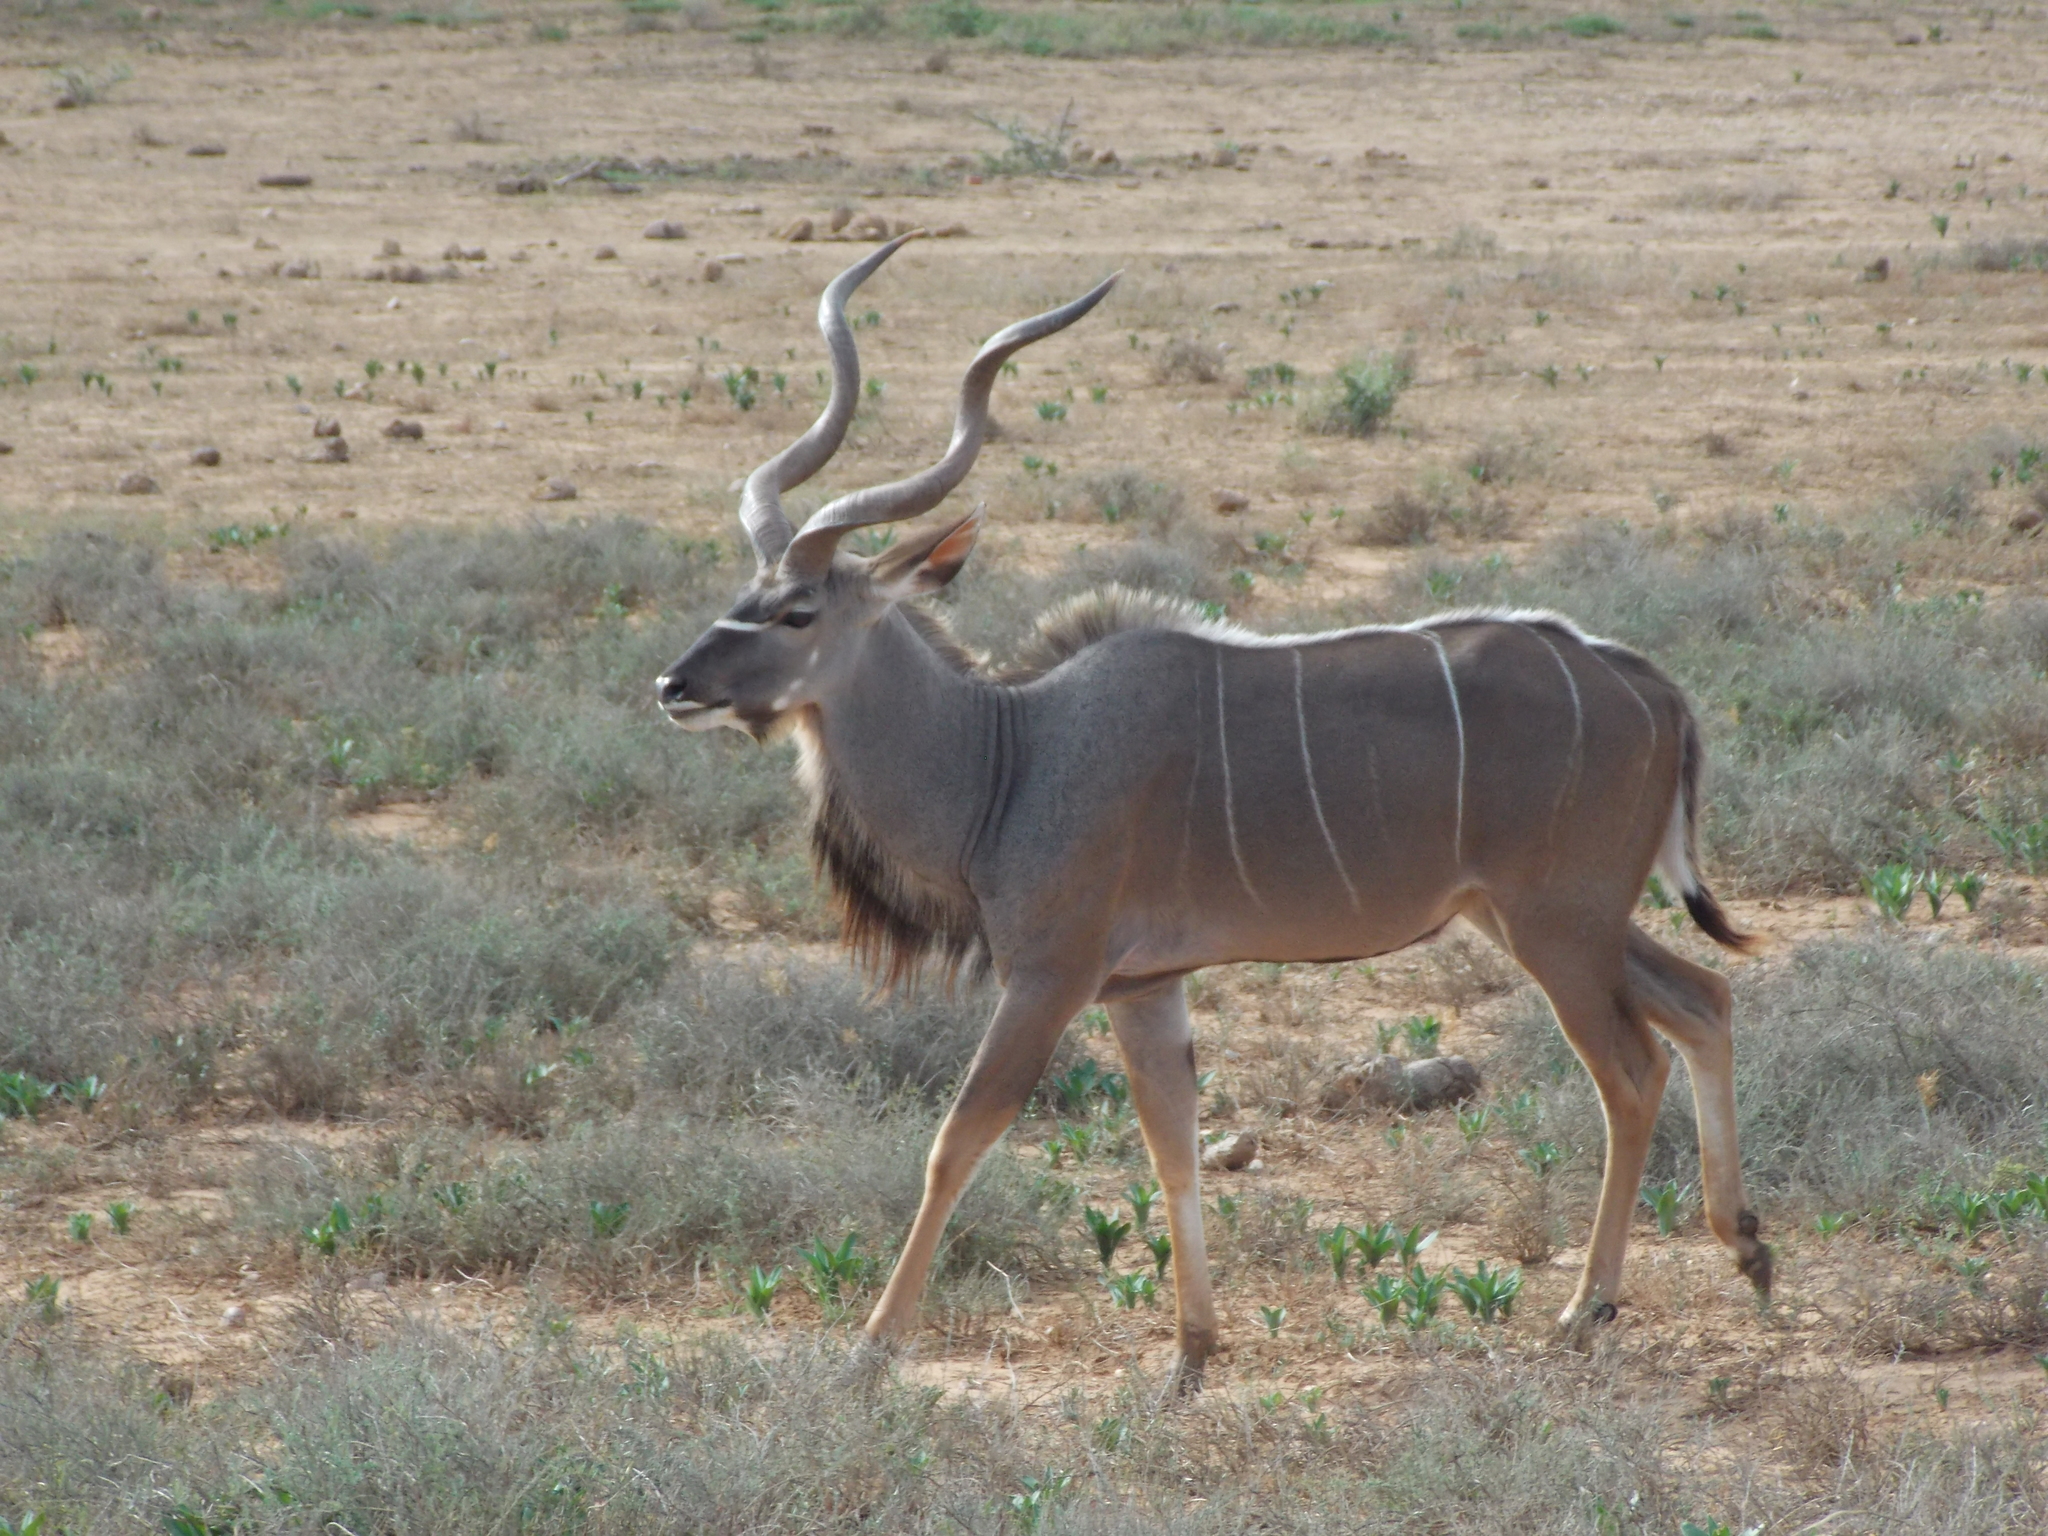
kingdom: Animalia
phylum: Chordata
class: Mammalia
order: Artiodactyla
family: Bovidae
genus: Tragelaphus
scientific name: Tragelaphus strepsiceros
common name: Greater kudu
